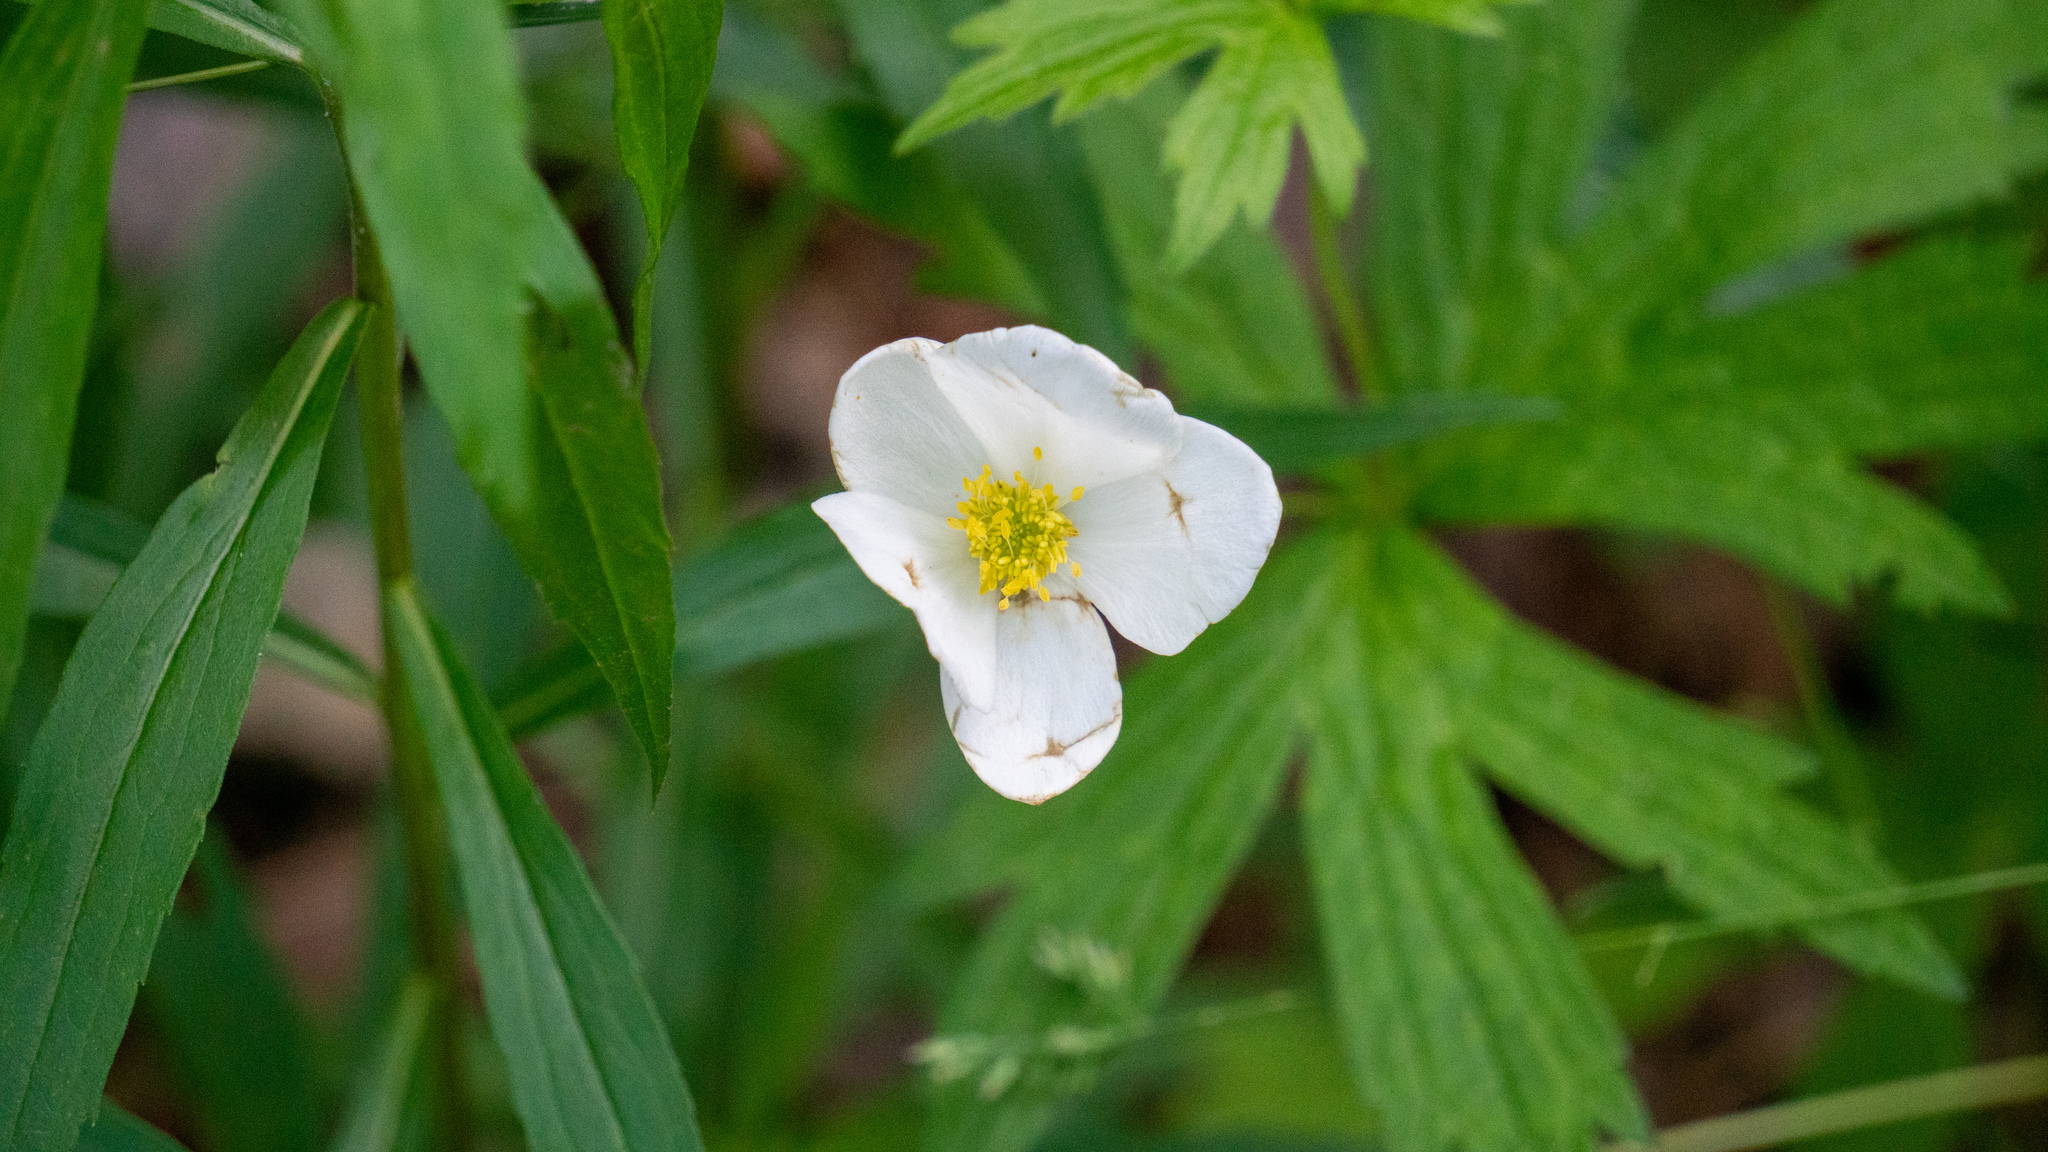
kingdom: Plantae
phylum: Tracheophyta
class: Magnoliopsida
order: Ranunculales
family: Ranunculaceae
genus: Anemonastrum
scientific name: Anemonastrum canadense
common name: Canada anemone
